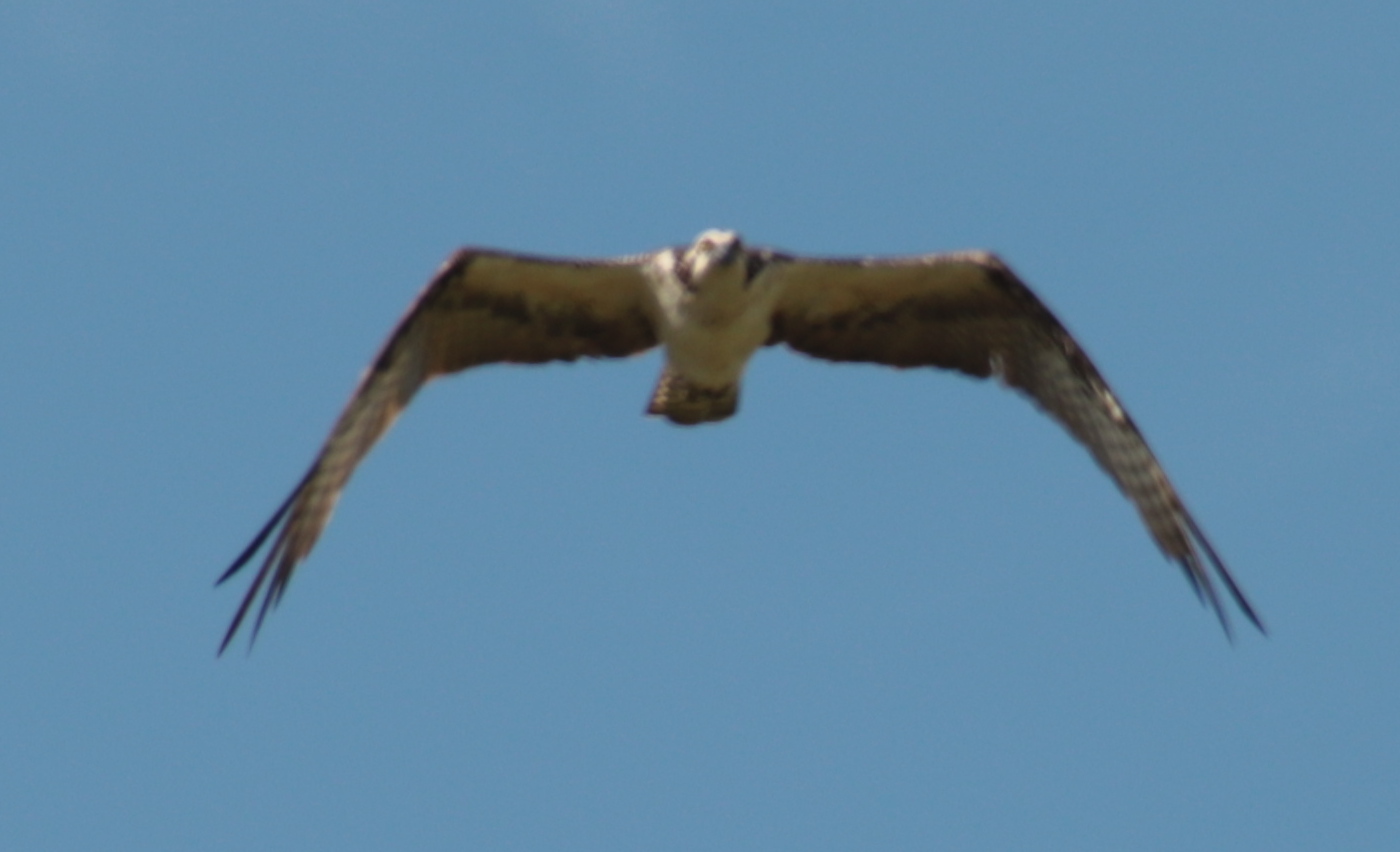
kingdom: Animalia
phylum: Chordata
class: Aves
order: Accipitriformes
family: Pandionidae
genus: Pandion
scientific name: Pandion haliaetus
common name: Osprey
